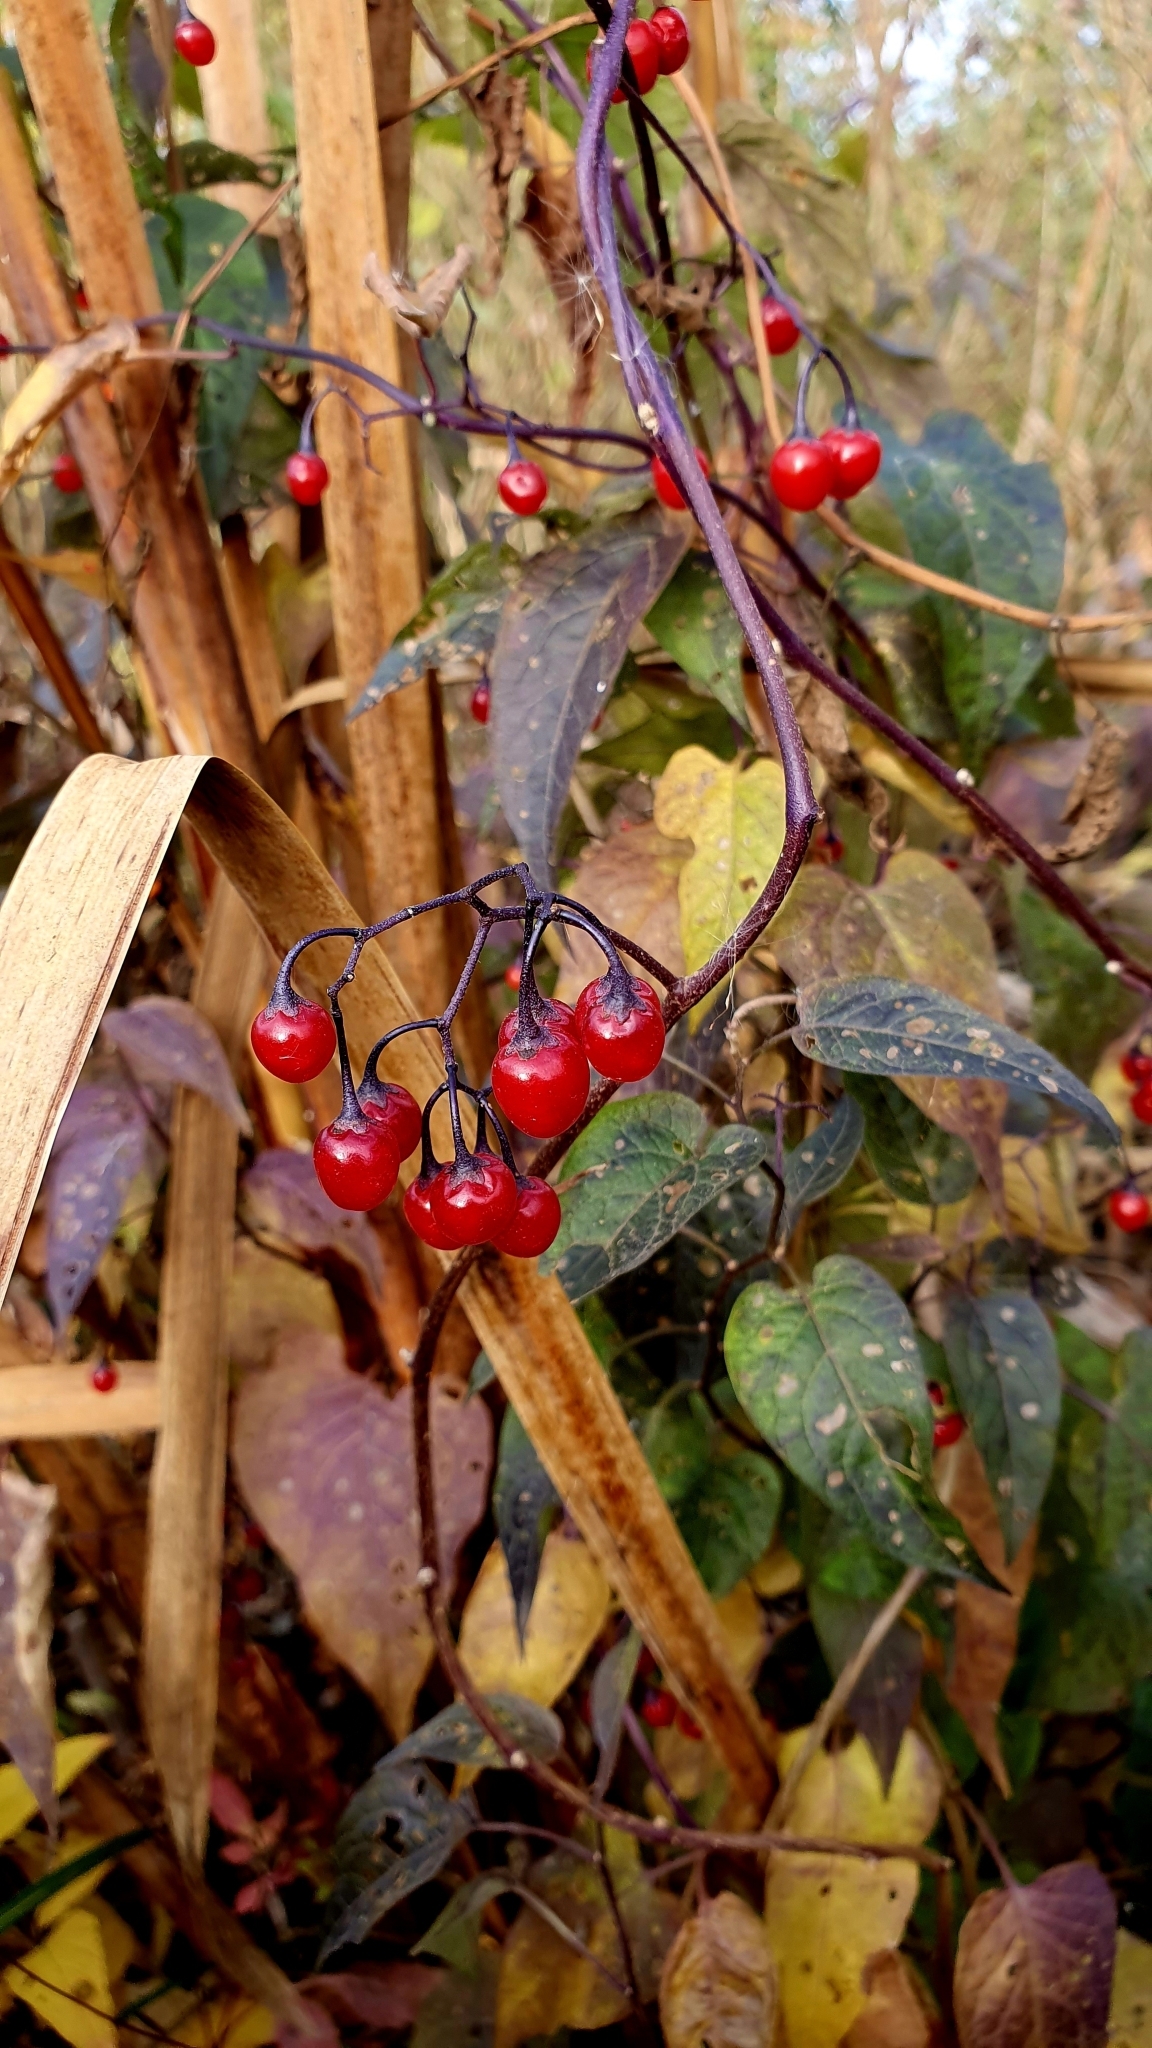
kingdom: Plantae
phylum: Tracheophyta
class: Magnoliopsida
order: Solanales
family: Solanaceae
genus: Solanum
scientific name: Solanum dulcamara
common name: Climbing nightshade
